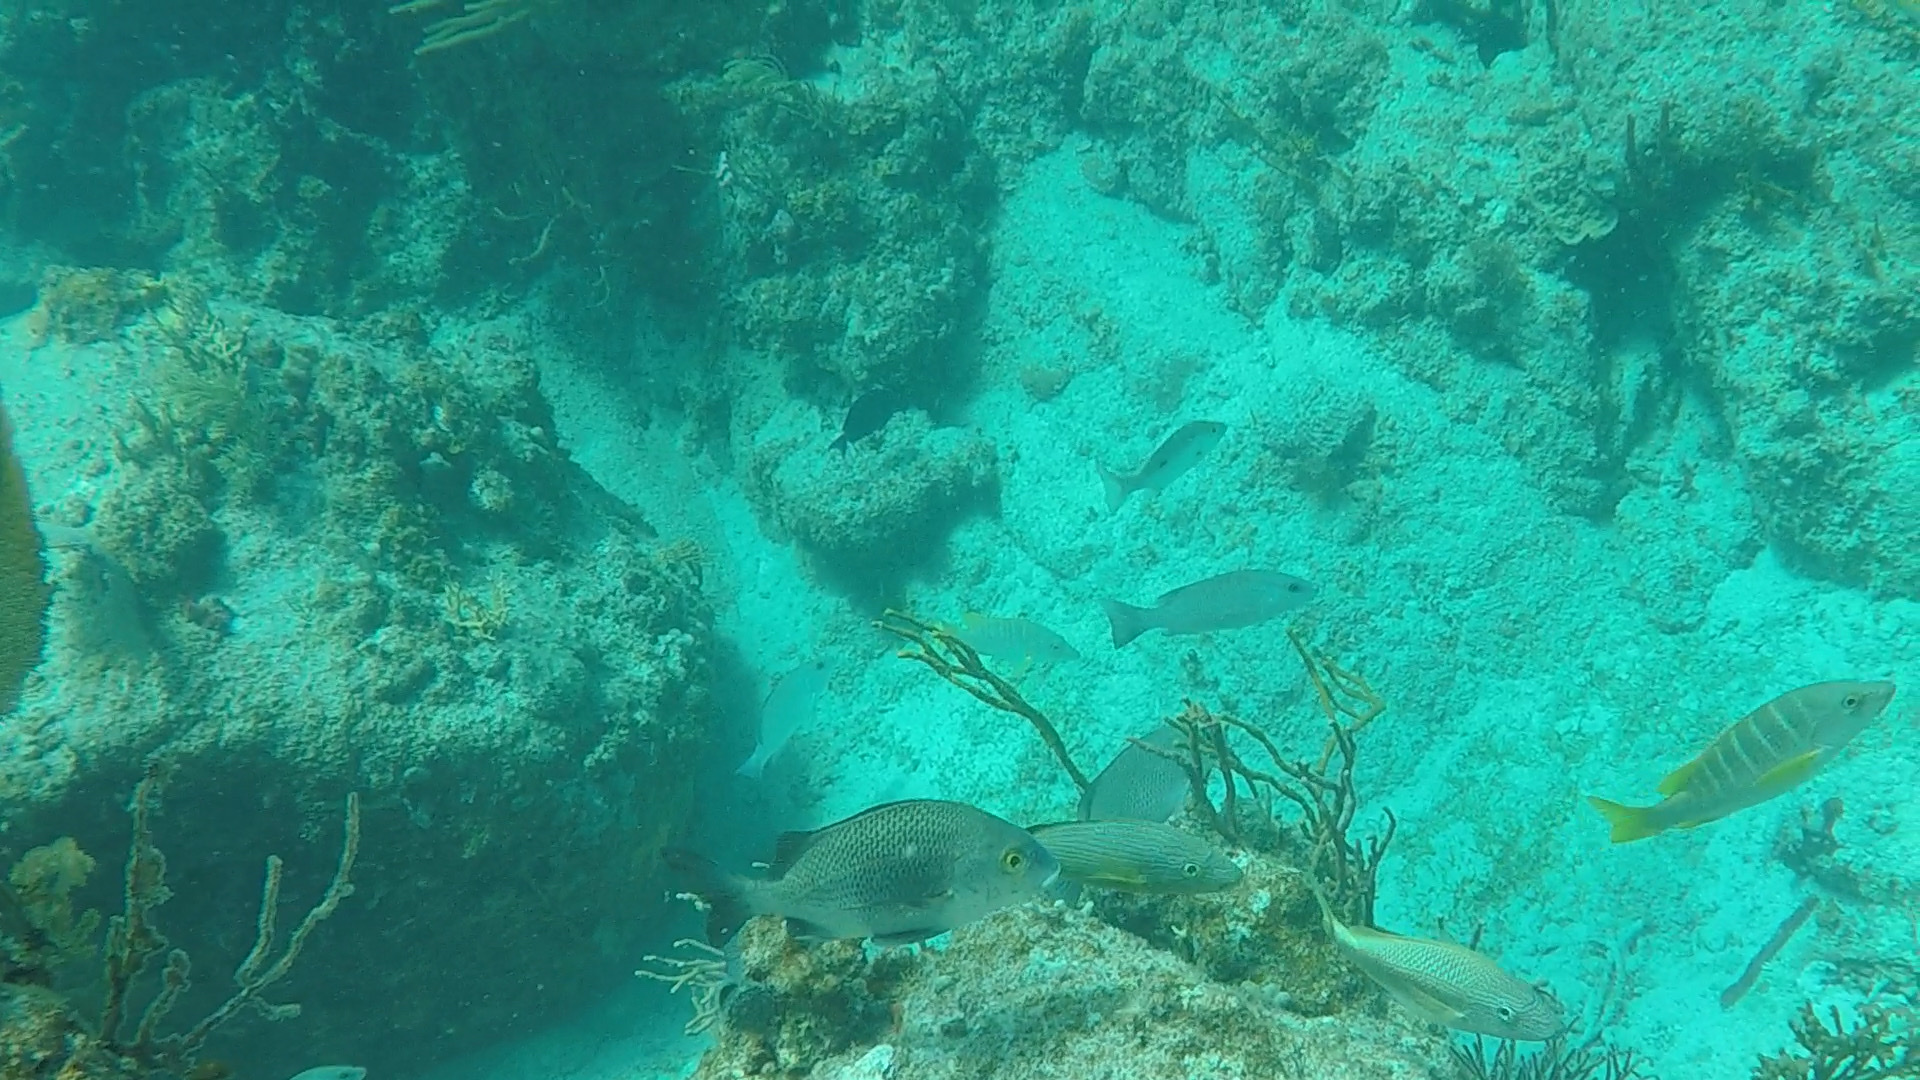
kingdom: Animalia
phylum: Chordata
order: Perciformes
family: Haemulidae
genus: Anisotremus
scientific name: Anisotremus surinamensis
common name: Black margate
